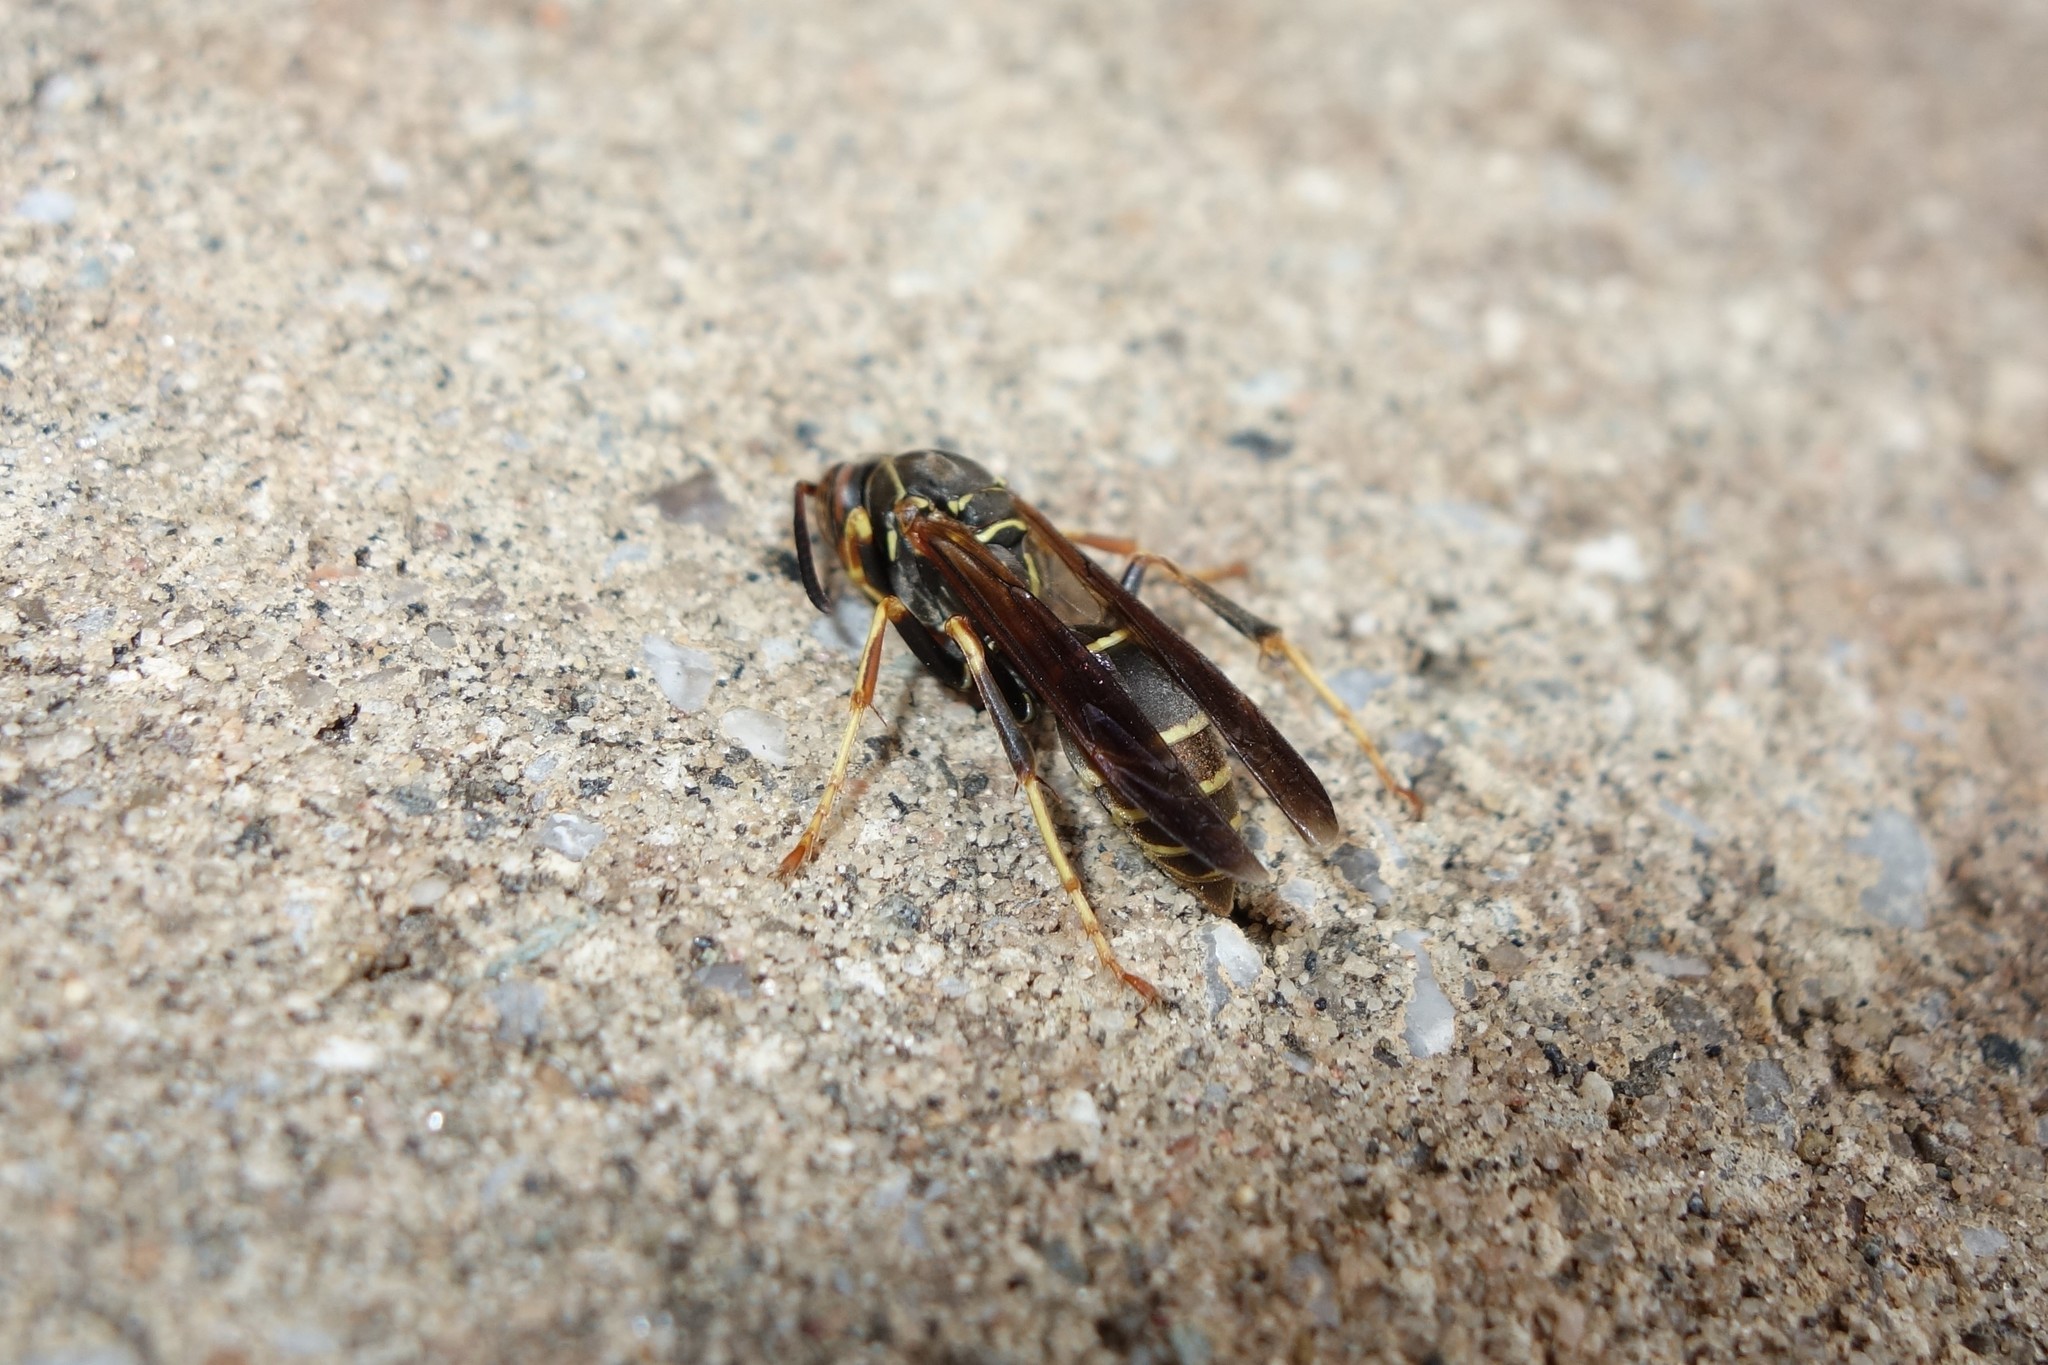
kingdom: Animalia
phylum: Arthropoda
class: Insecta
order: Hymenoptera
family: Eumenidae
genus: Polistes
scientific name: Polistes fuscatus
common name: Dark paper wasp
